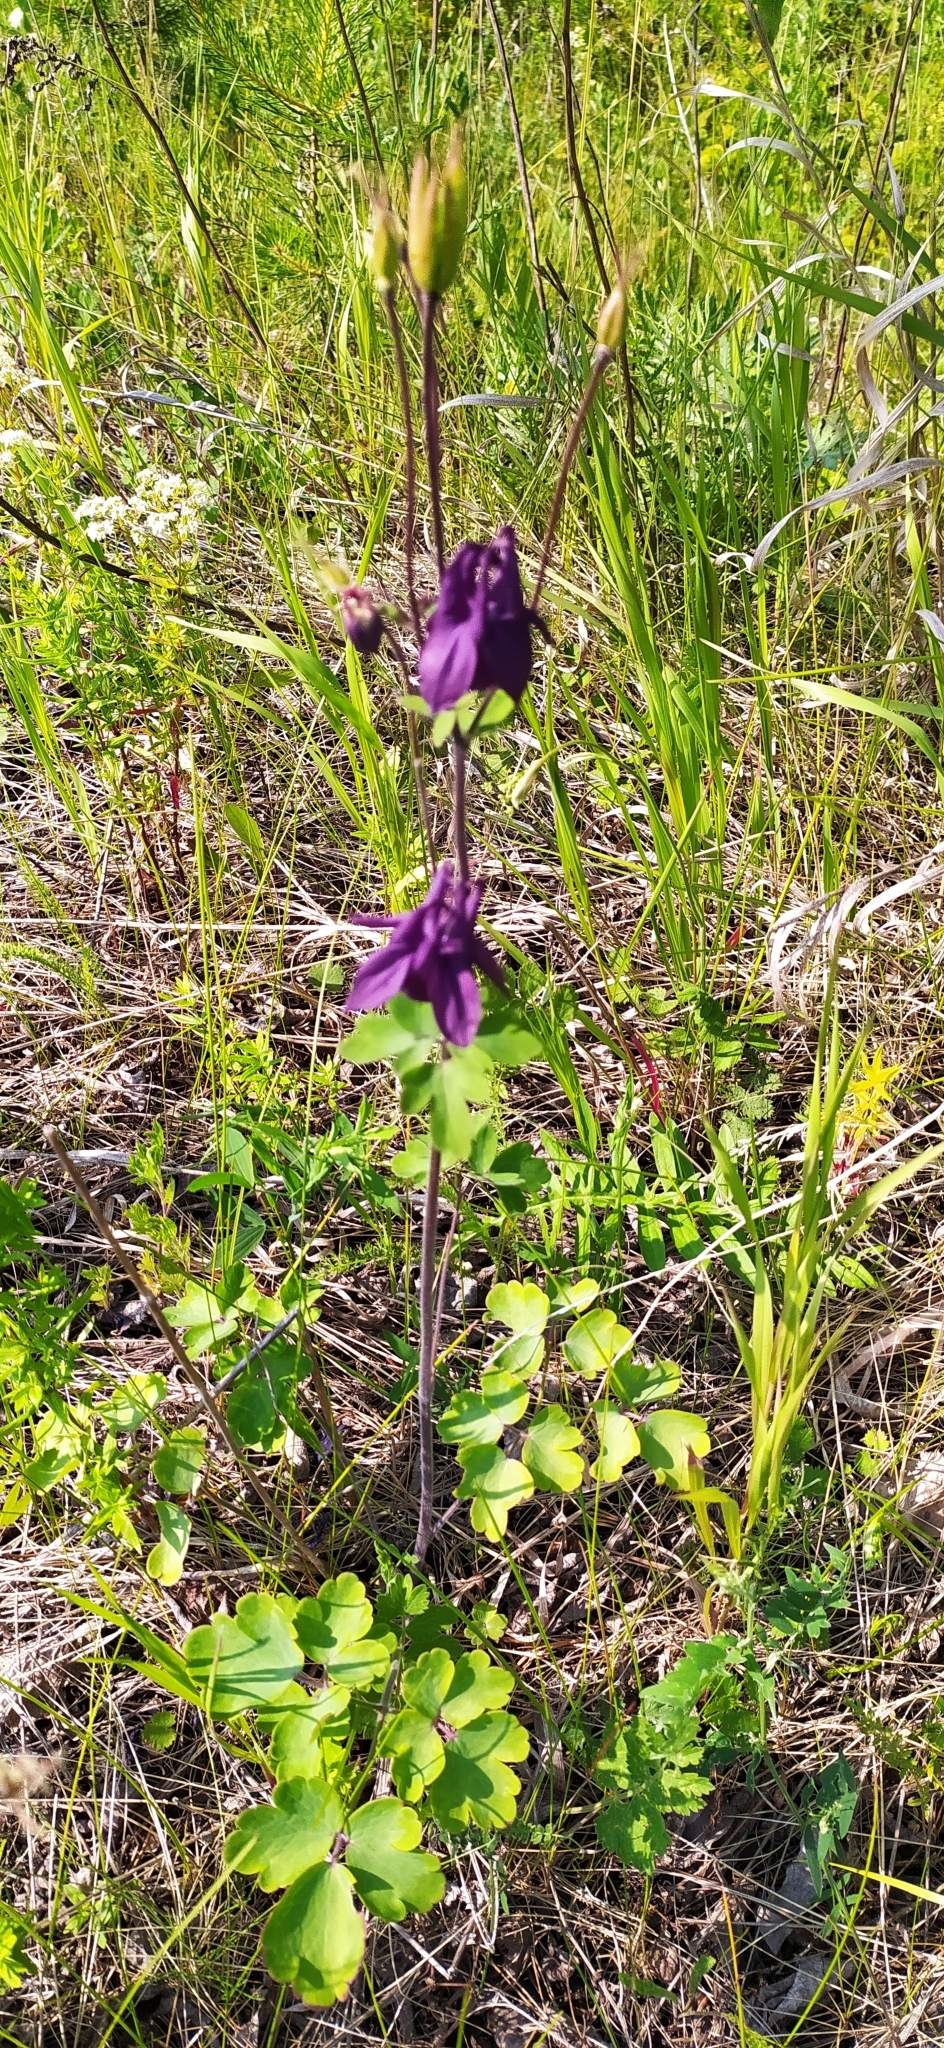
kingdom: Plantae
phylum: Tracheophyta
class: Magnoliopsida
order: Ranunculales
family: Ranunculaceae
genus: Aquilegia
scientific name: Aquilegia vulgaris
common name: Columbine
